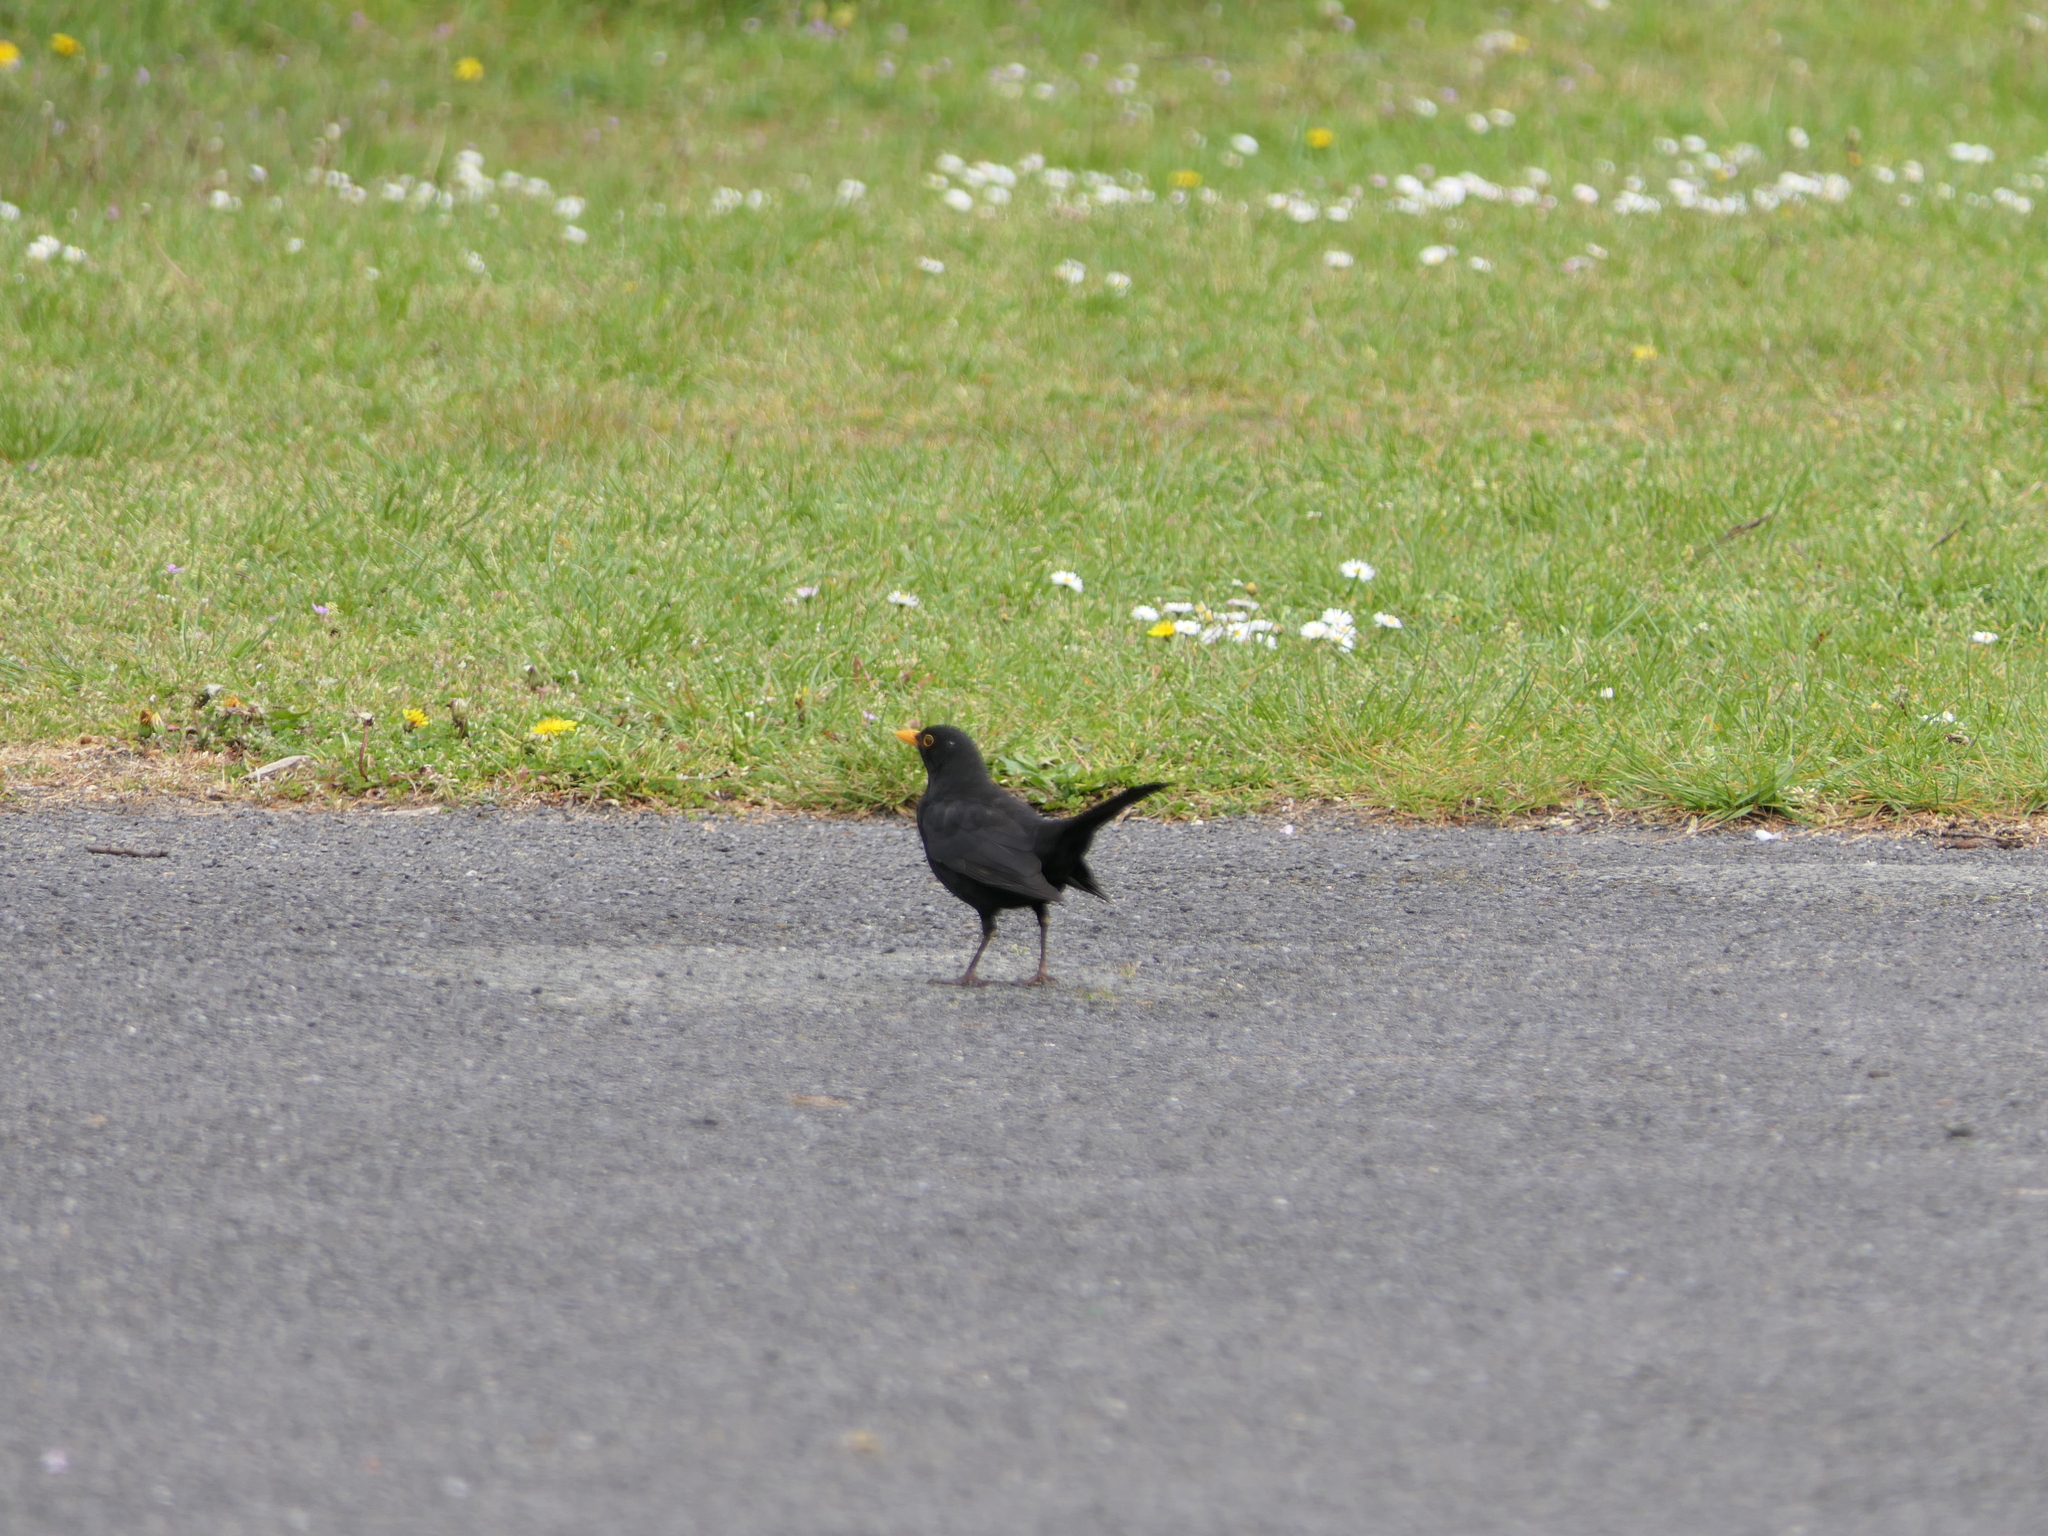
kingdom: Animalia
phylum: Chordata
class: Aves
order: Passeriformes
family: Turdidae
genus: Turdus
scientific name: Turdus merula
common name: Common blackbird
